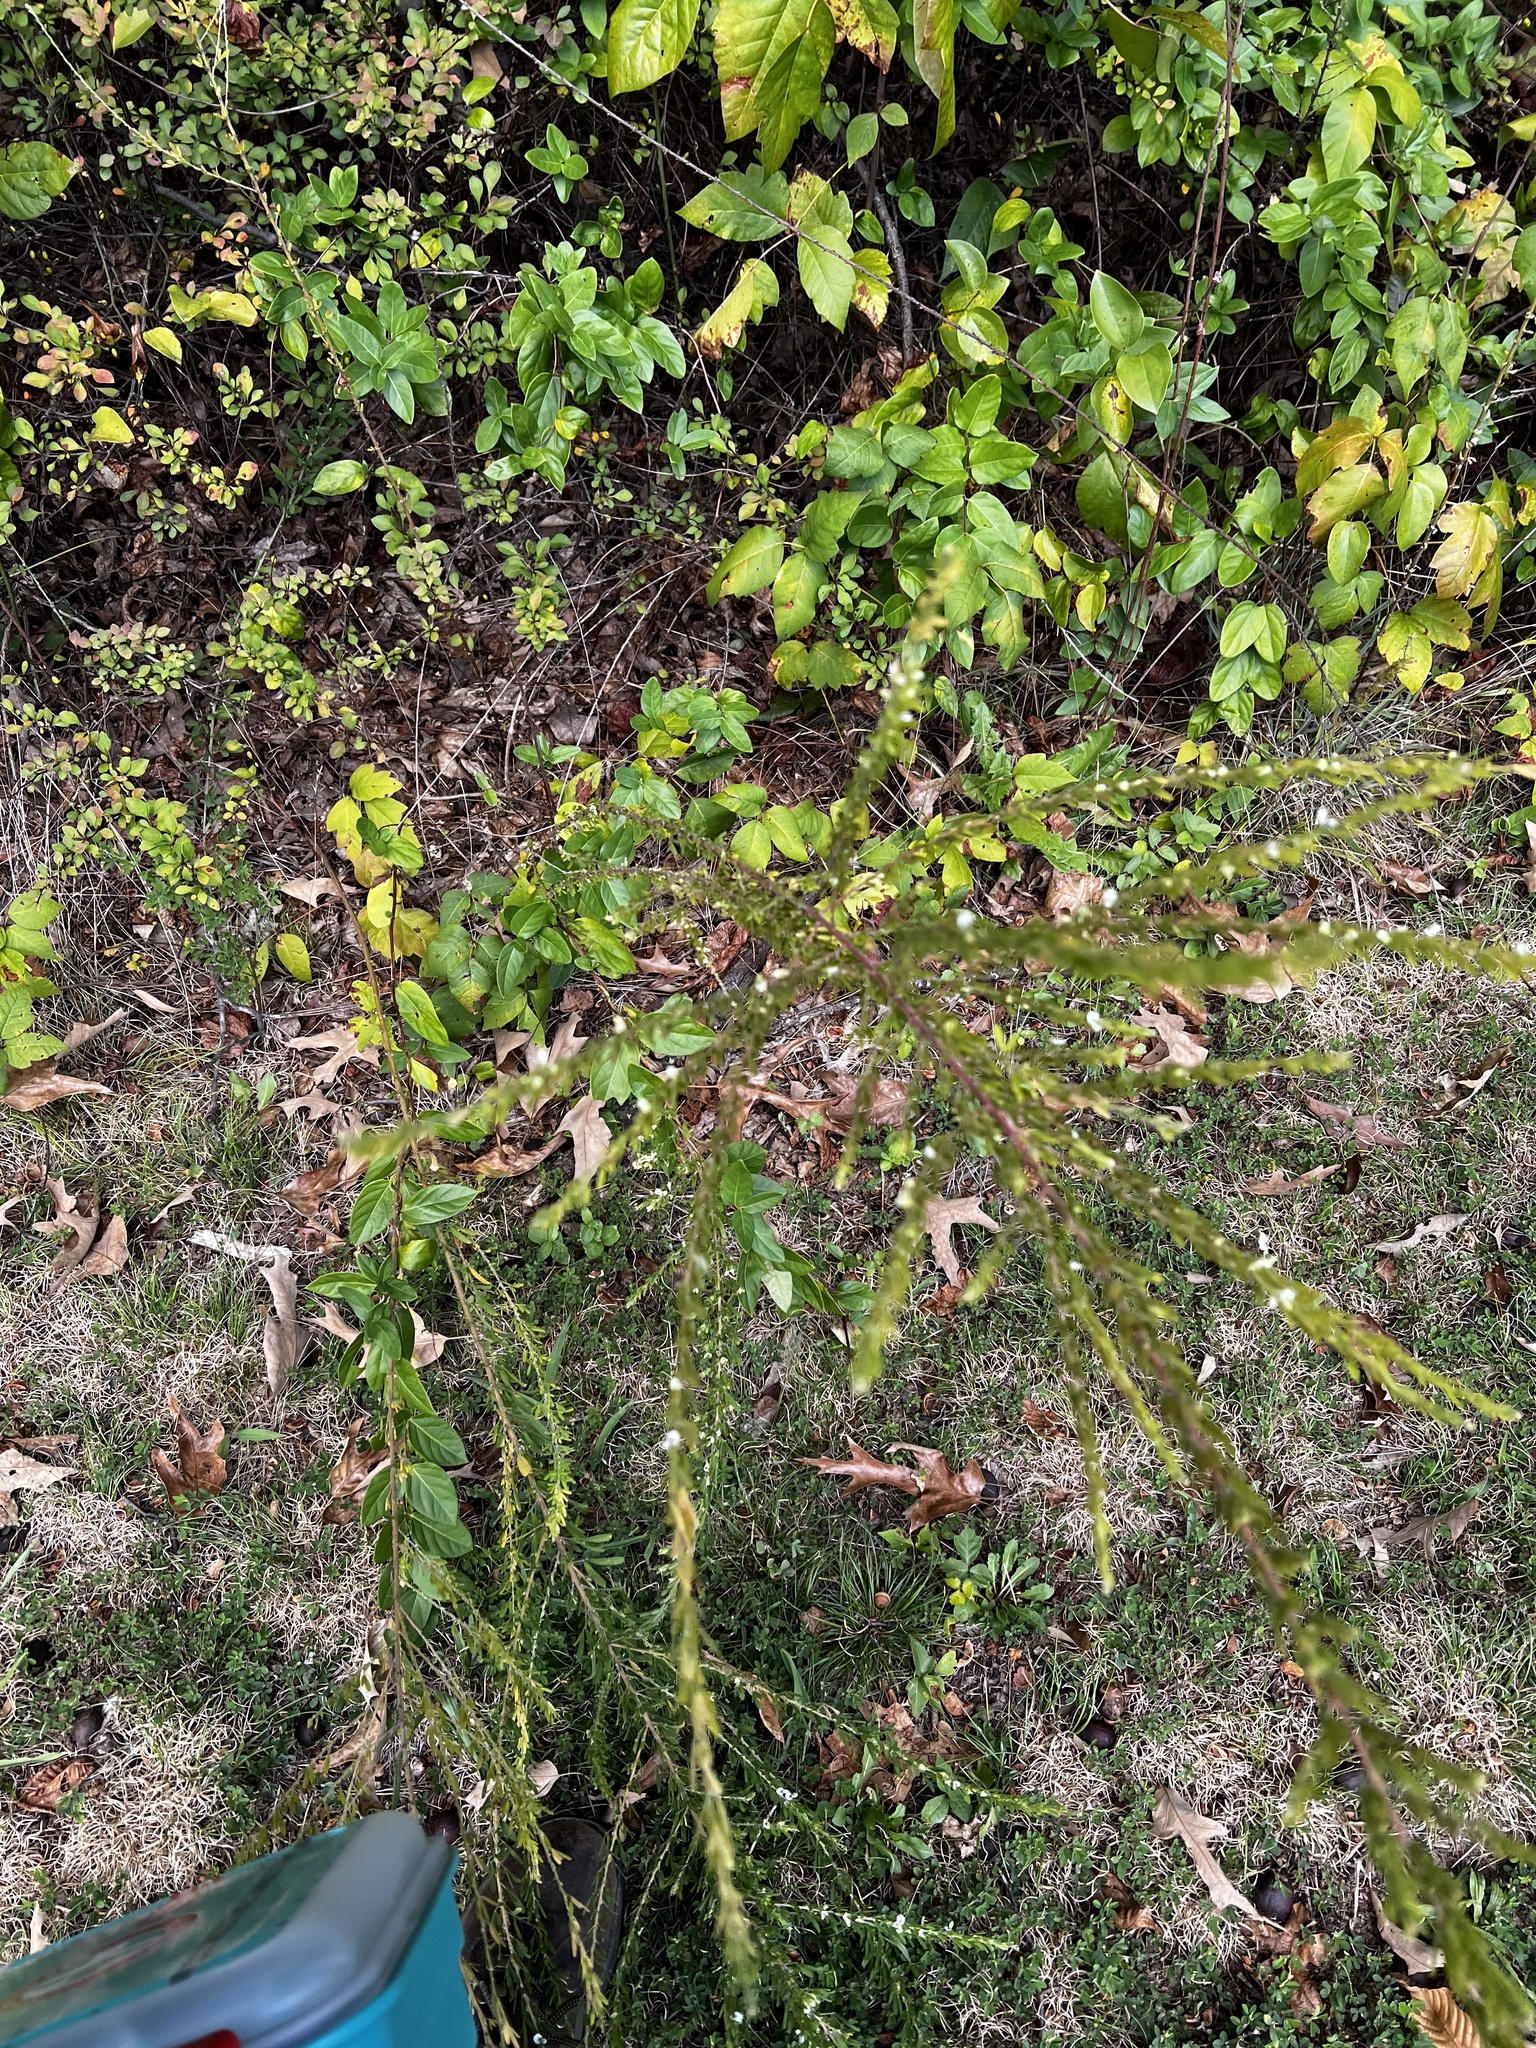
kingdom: Plantae
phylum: Tracheophyta
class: Magnoliopsida
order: Fabales
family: Fabaceae
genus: Lespedeza
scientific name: Lespedeza cuneata
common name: Chinese bush-clover
